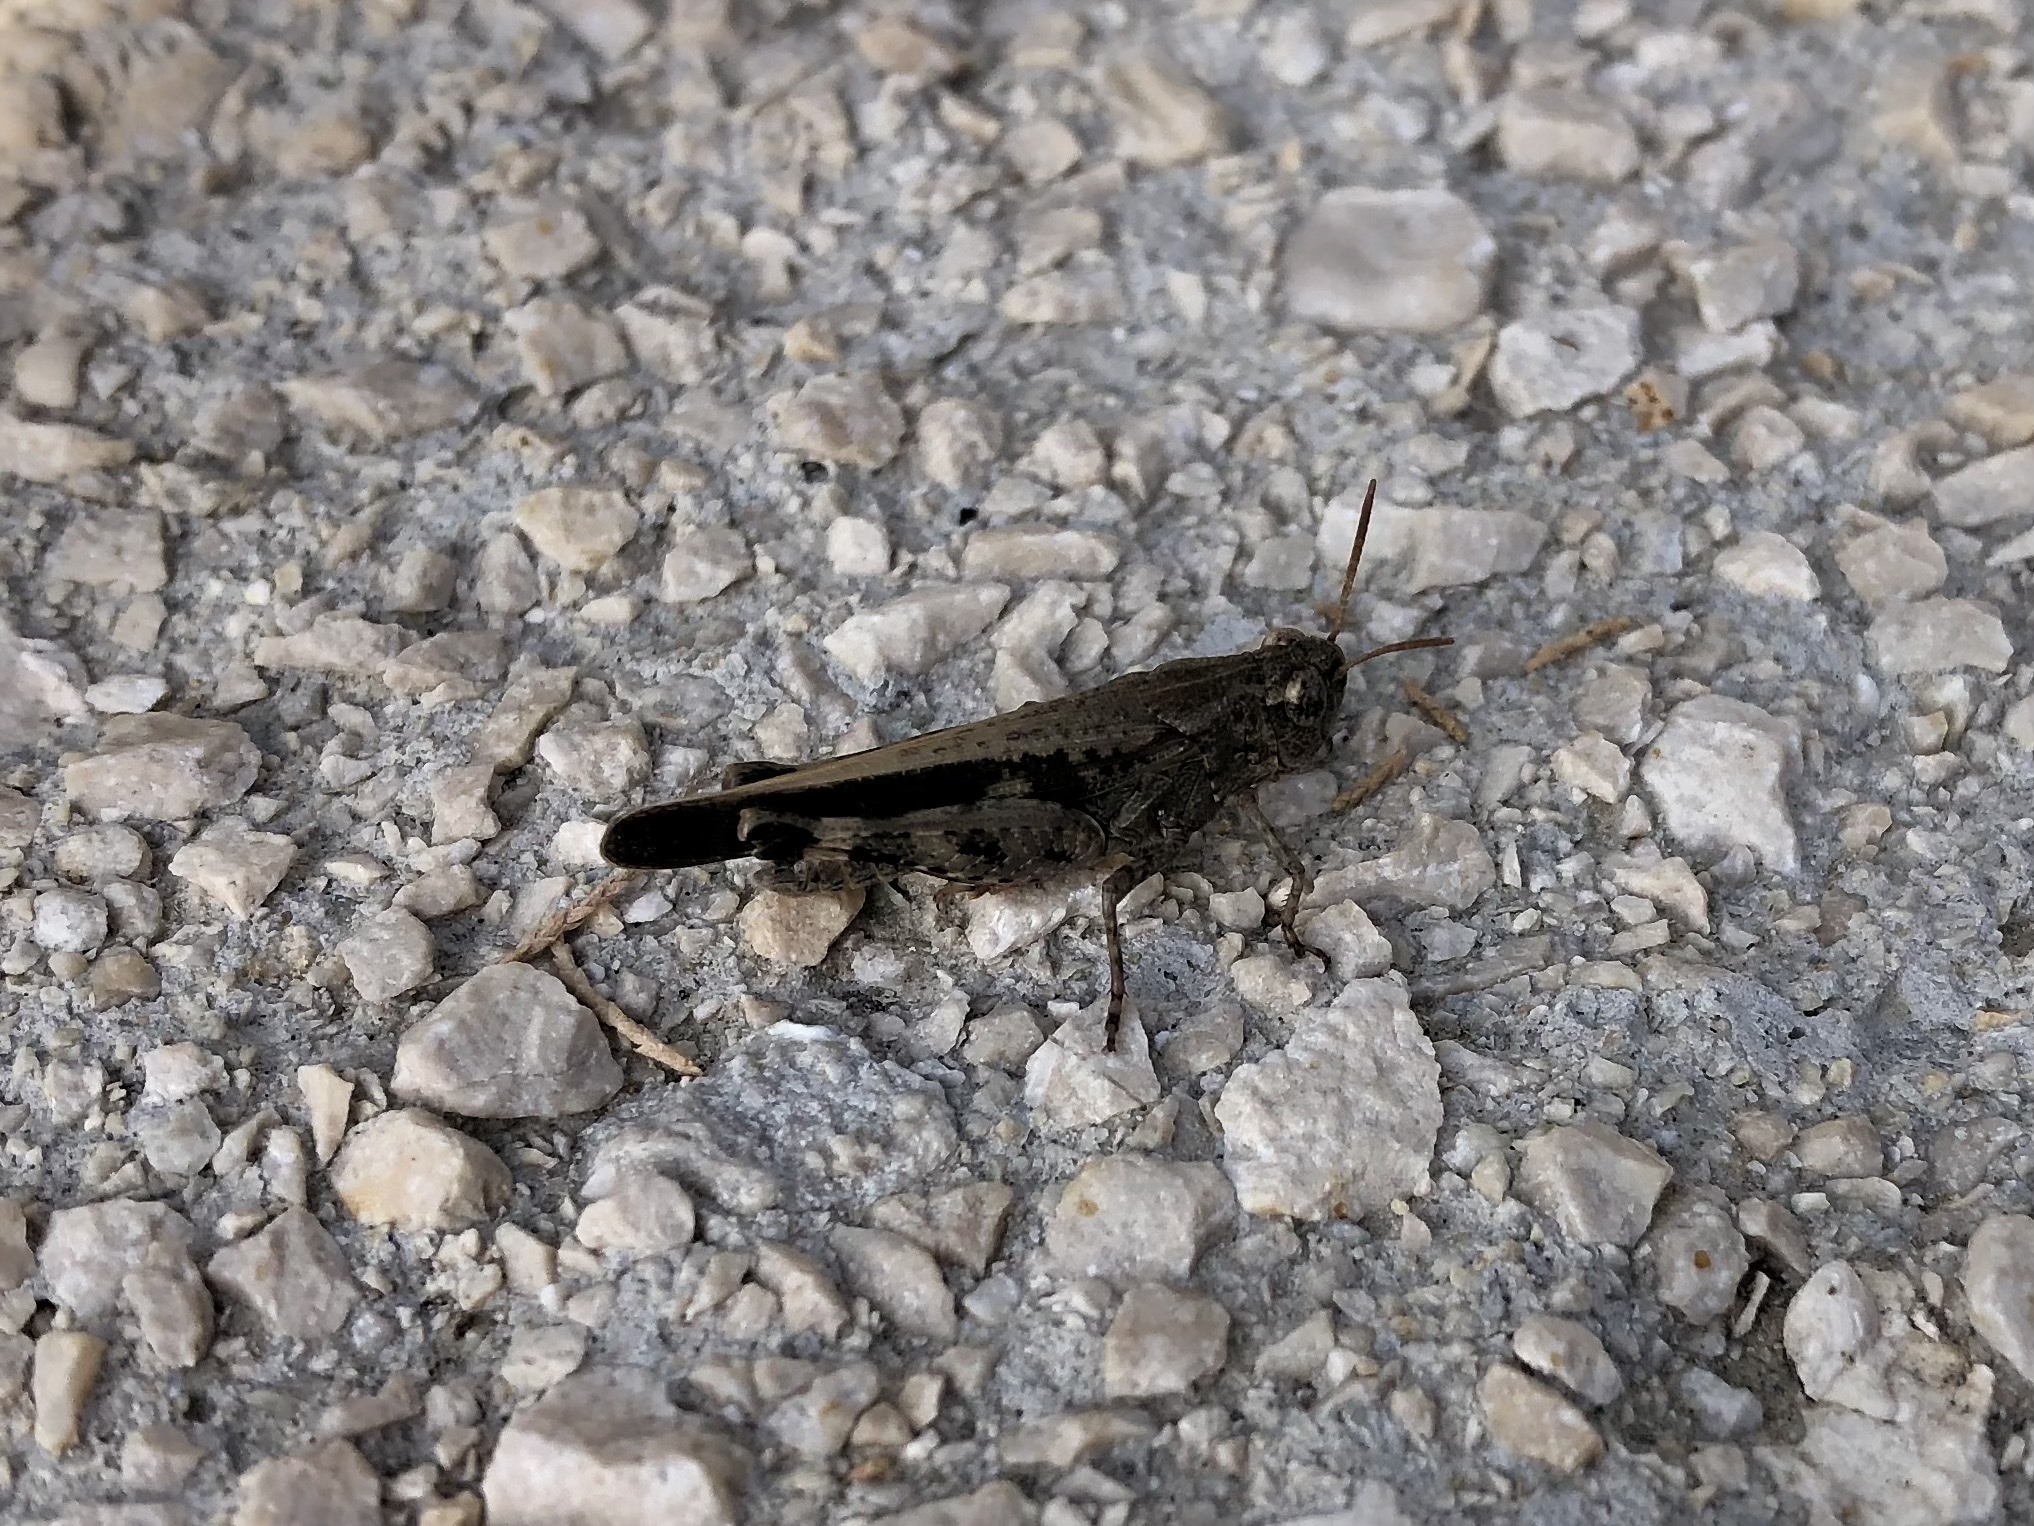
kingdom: Animalia
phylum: Arthropoda
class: Insecta
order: Orthoptera
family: Acrididae
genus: Aiolopus
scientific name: Aiolopus strepens
